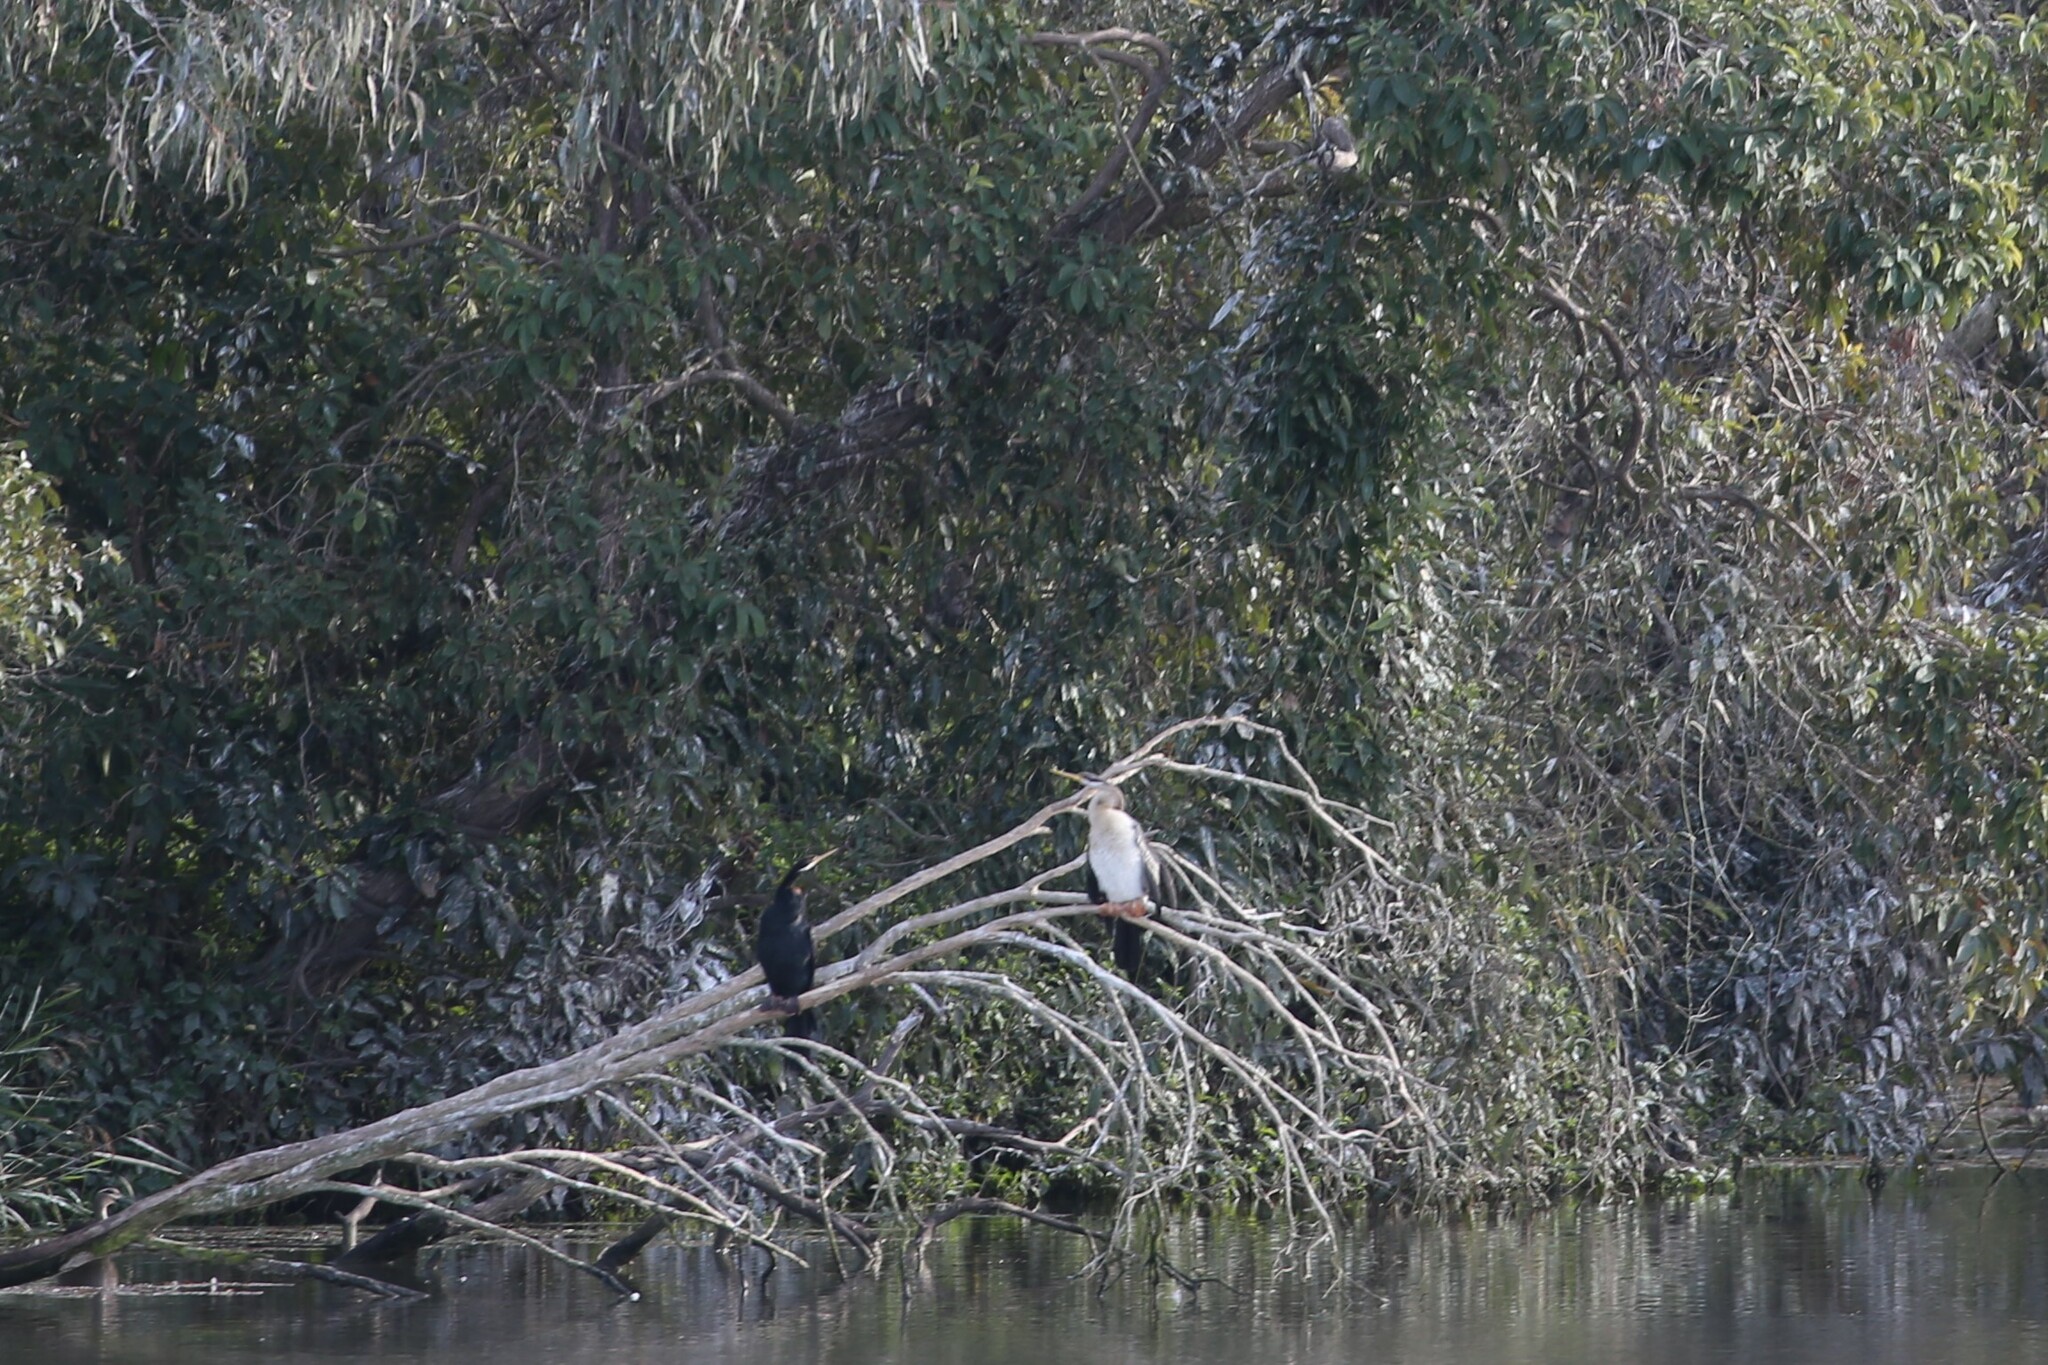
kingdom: Animalia
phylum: Chordata
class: Aves
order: Suliformes
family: Anhingidae
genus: Anhinga
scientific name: Anhinga novaehollandiae
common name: Australasian darter
